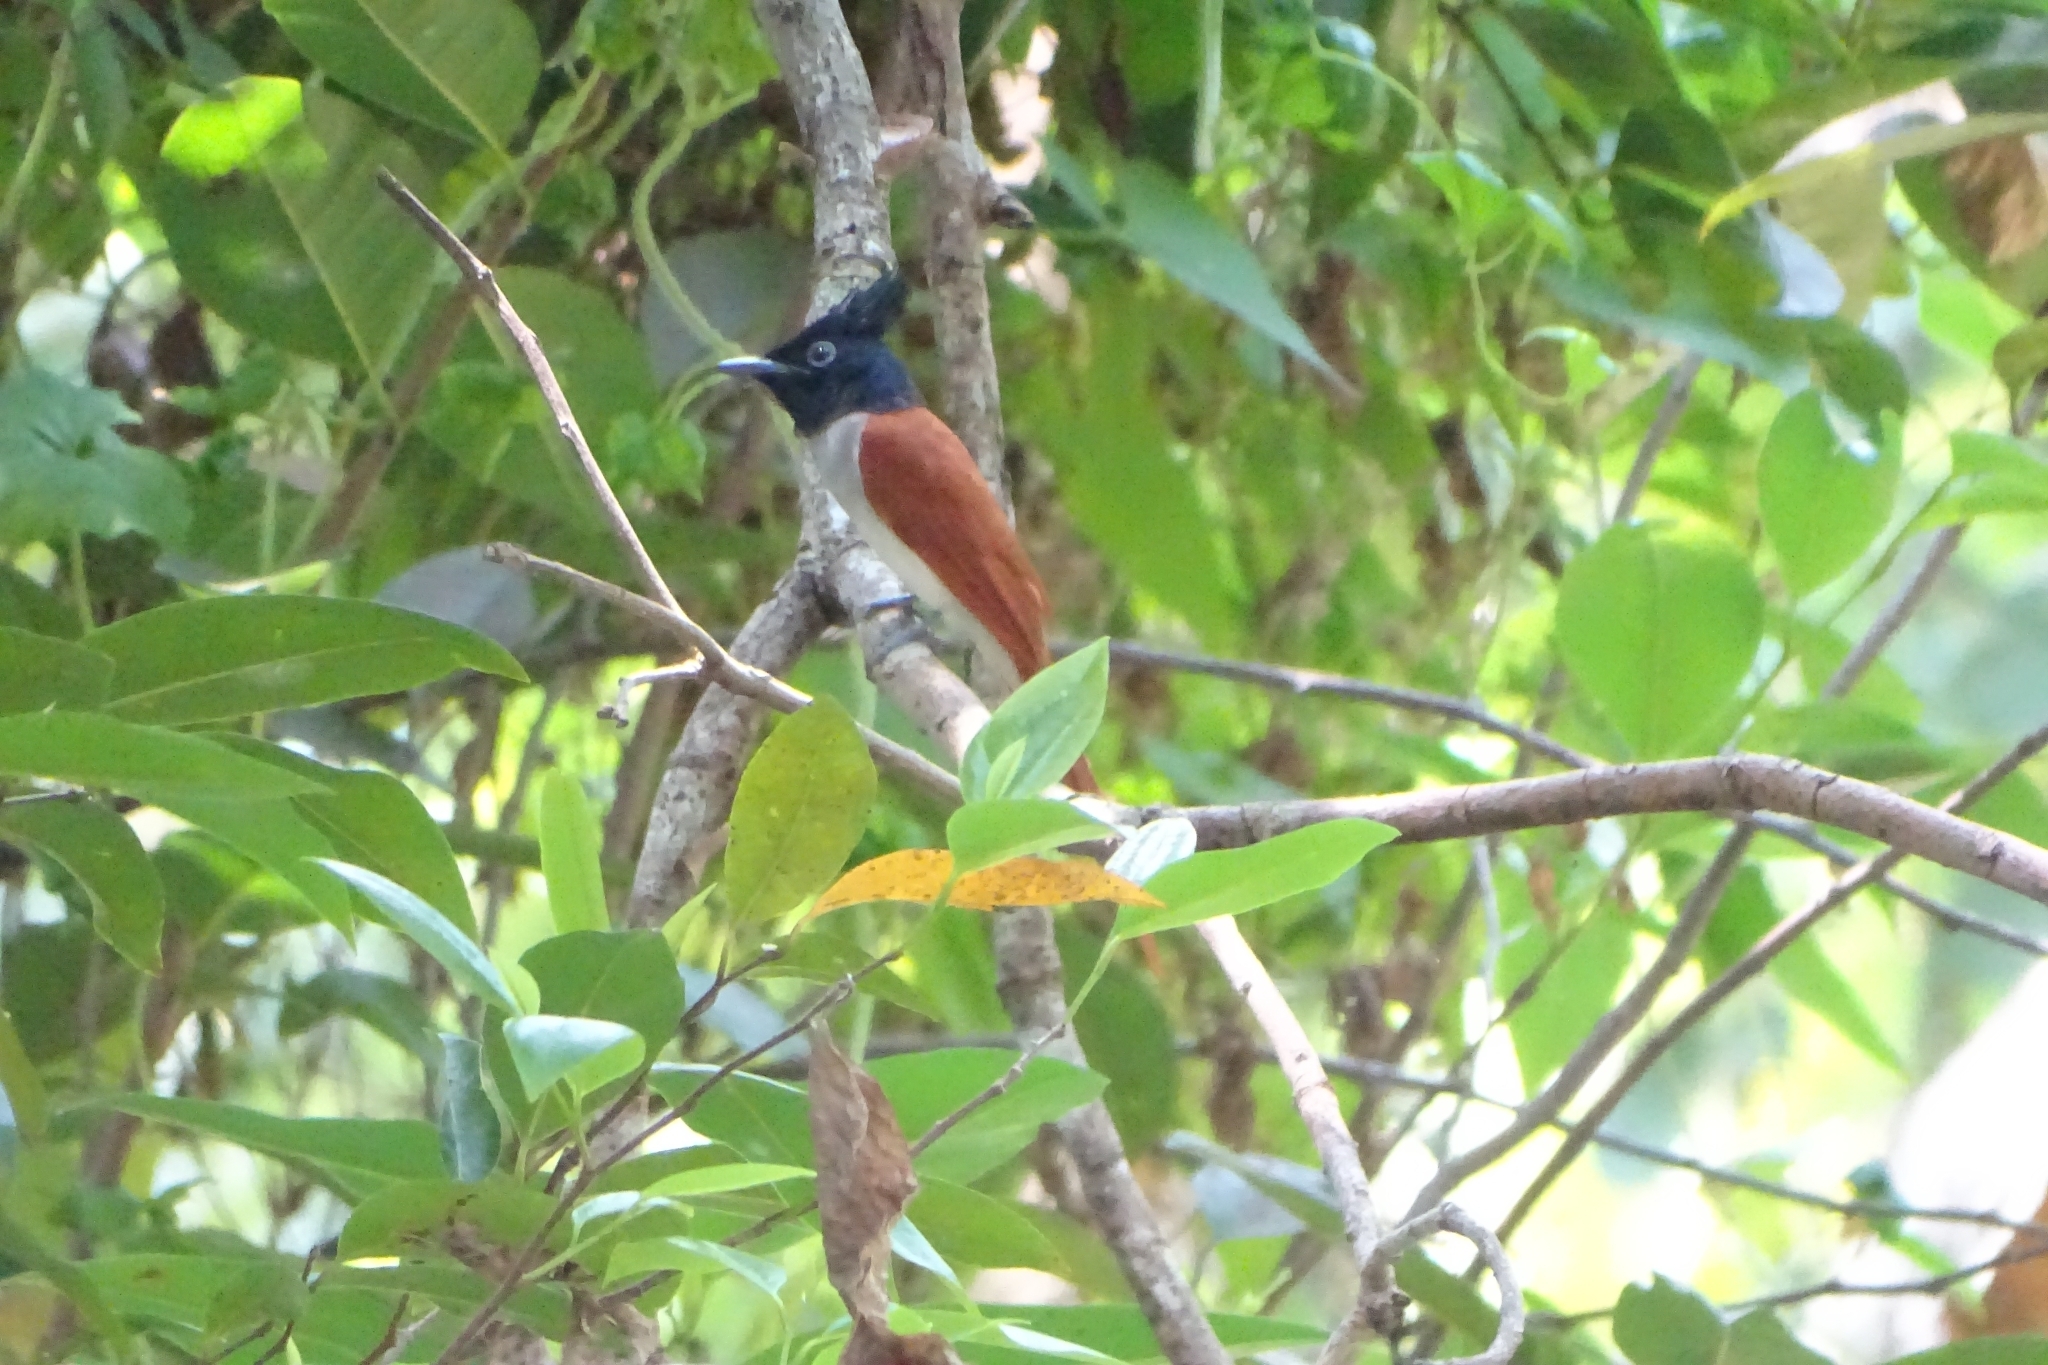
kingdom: Animalia
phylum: Chordata
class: Aves
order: Passeriformes
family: Monarchidae
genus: Terpsiphone
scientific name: Terpsiphone paradisi
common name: Indian paradise flycatcher
